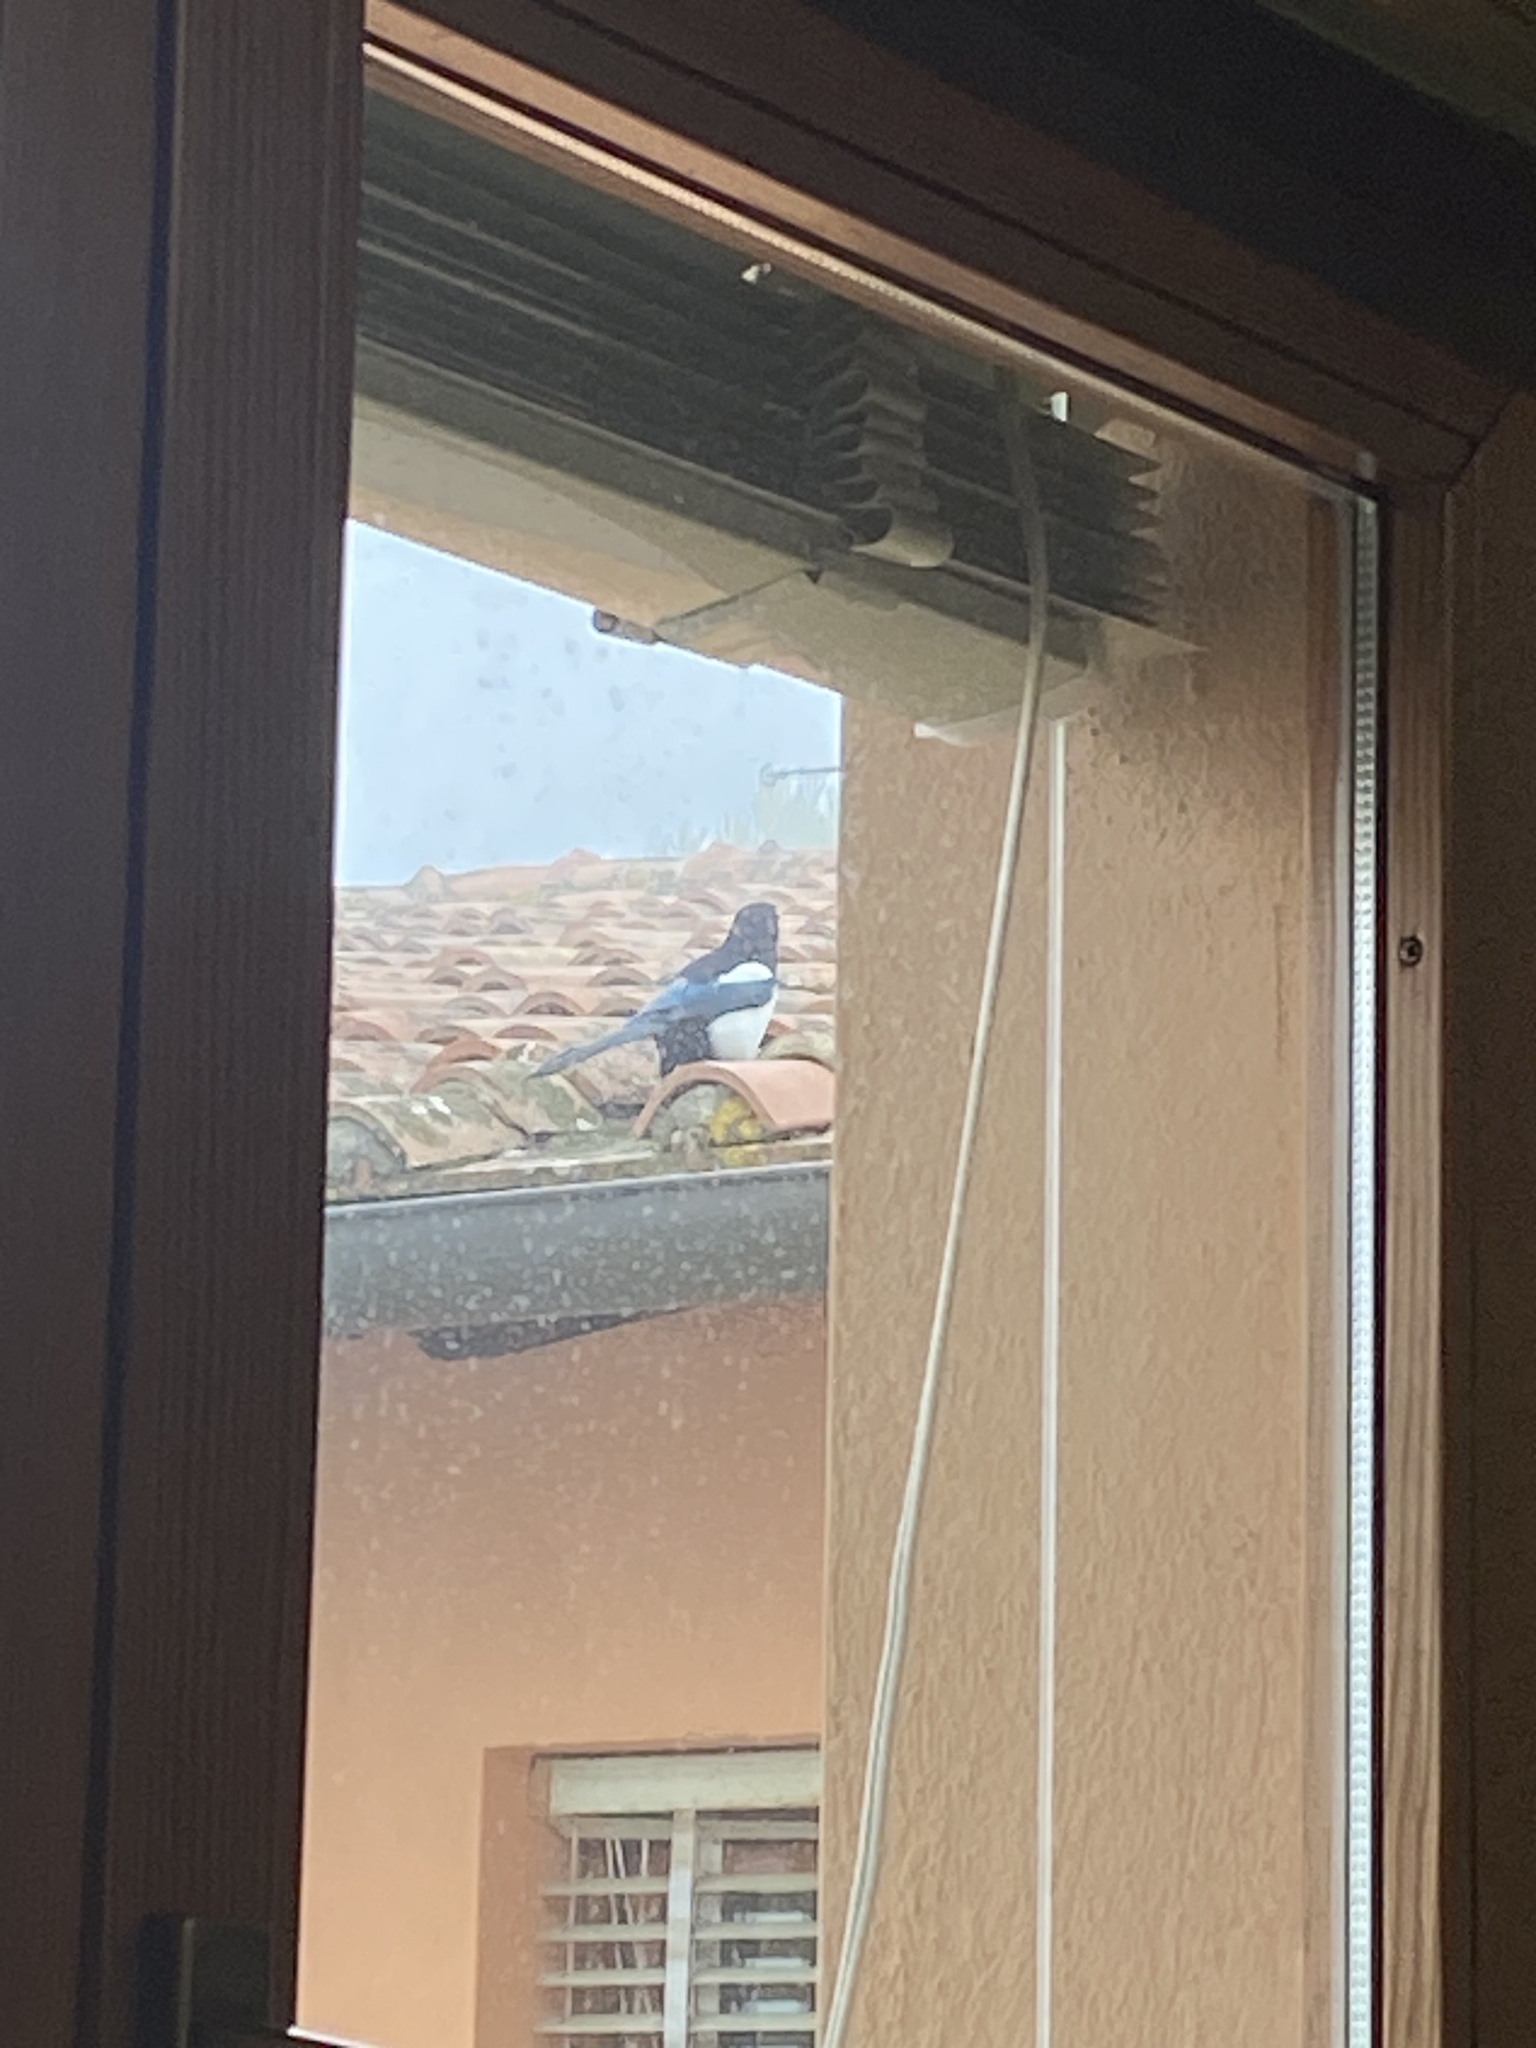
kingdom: Animalia
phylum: Chordata
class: Aves
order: Passeriformes
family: Corvidae
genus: Pica
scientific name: Pica pica
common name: Eurasian magpie
